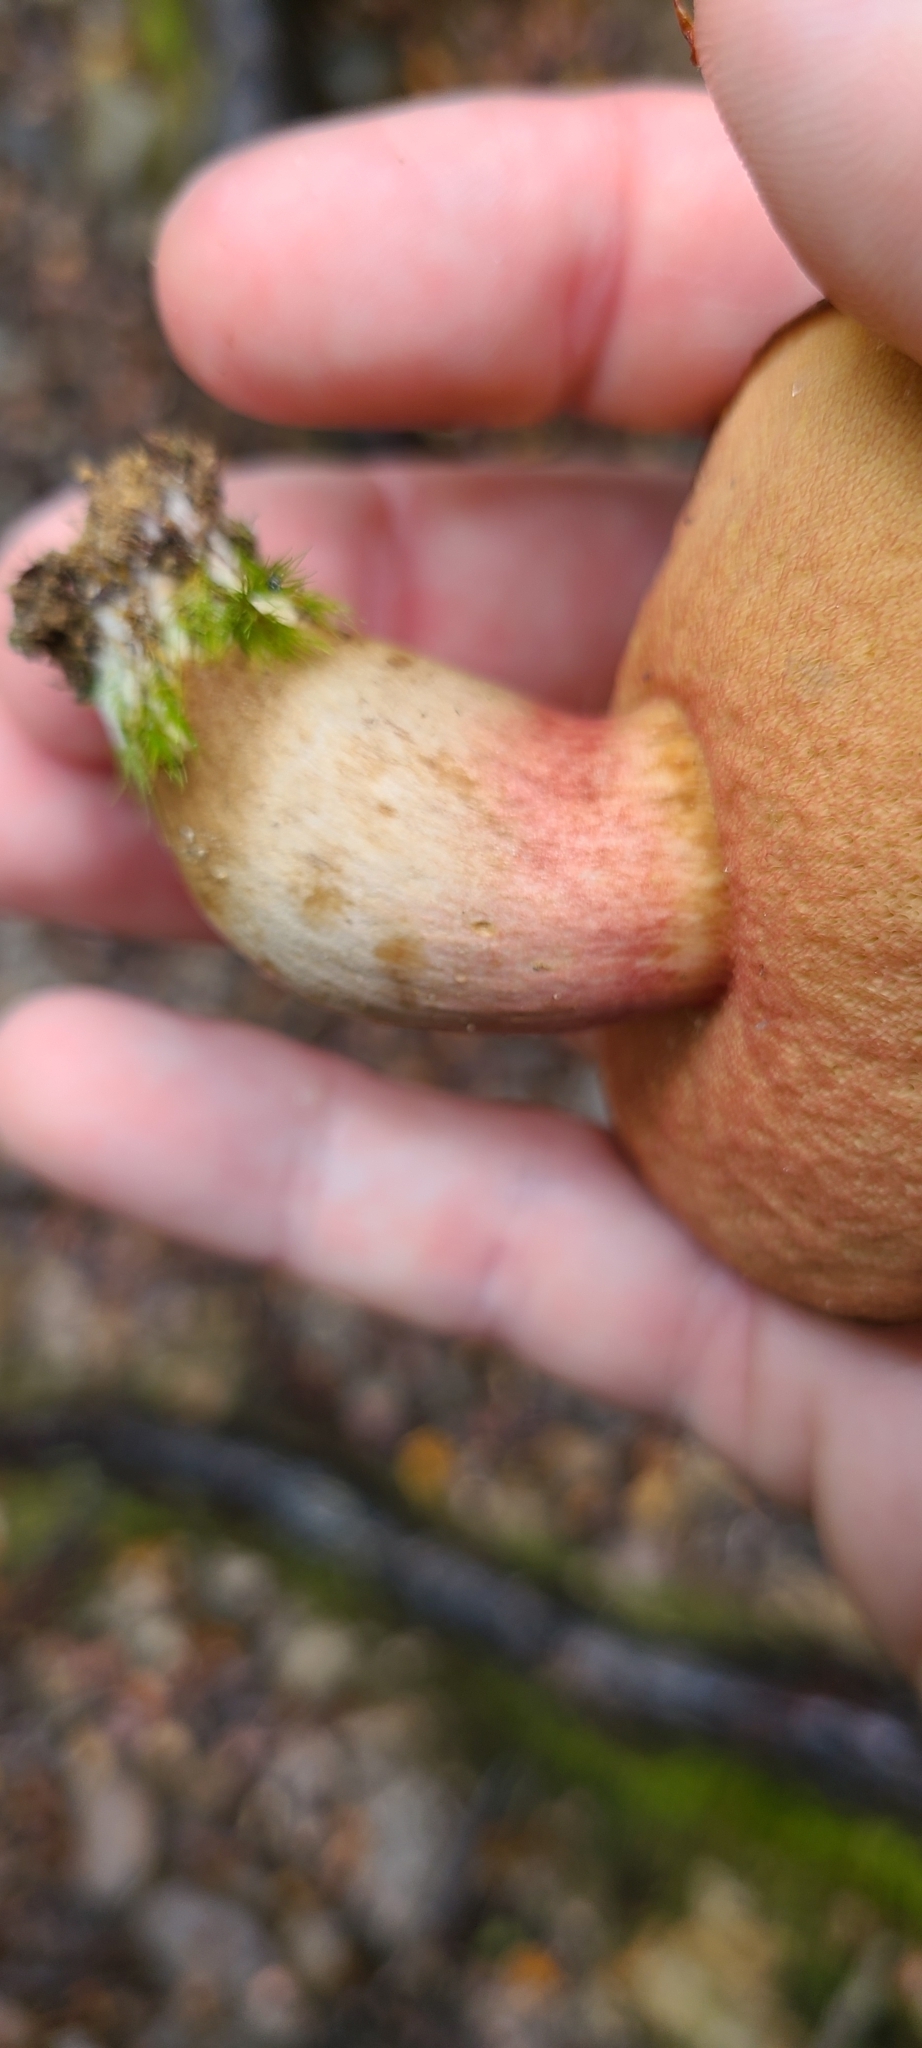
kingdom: Fungi
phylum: Basidiomycota
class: Agaricomycetes
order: Boletales
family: Boletaceae
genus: Xerocomus
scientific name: Xerocomus nothofagi
